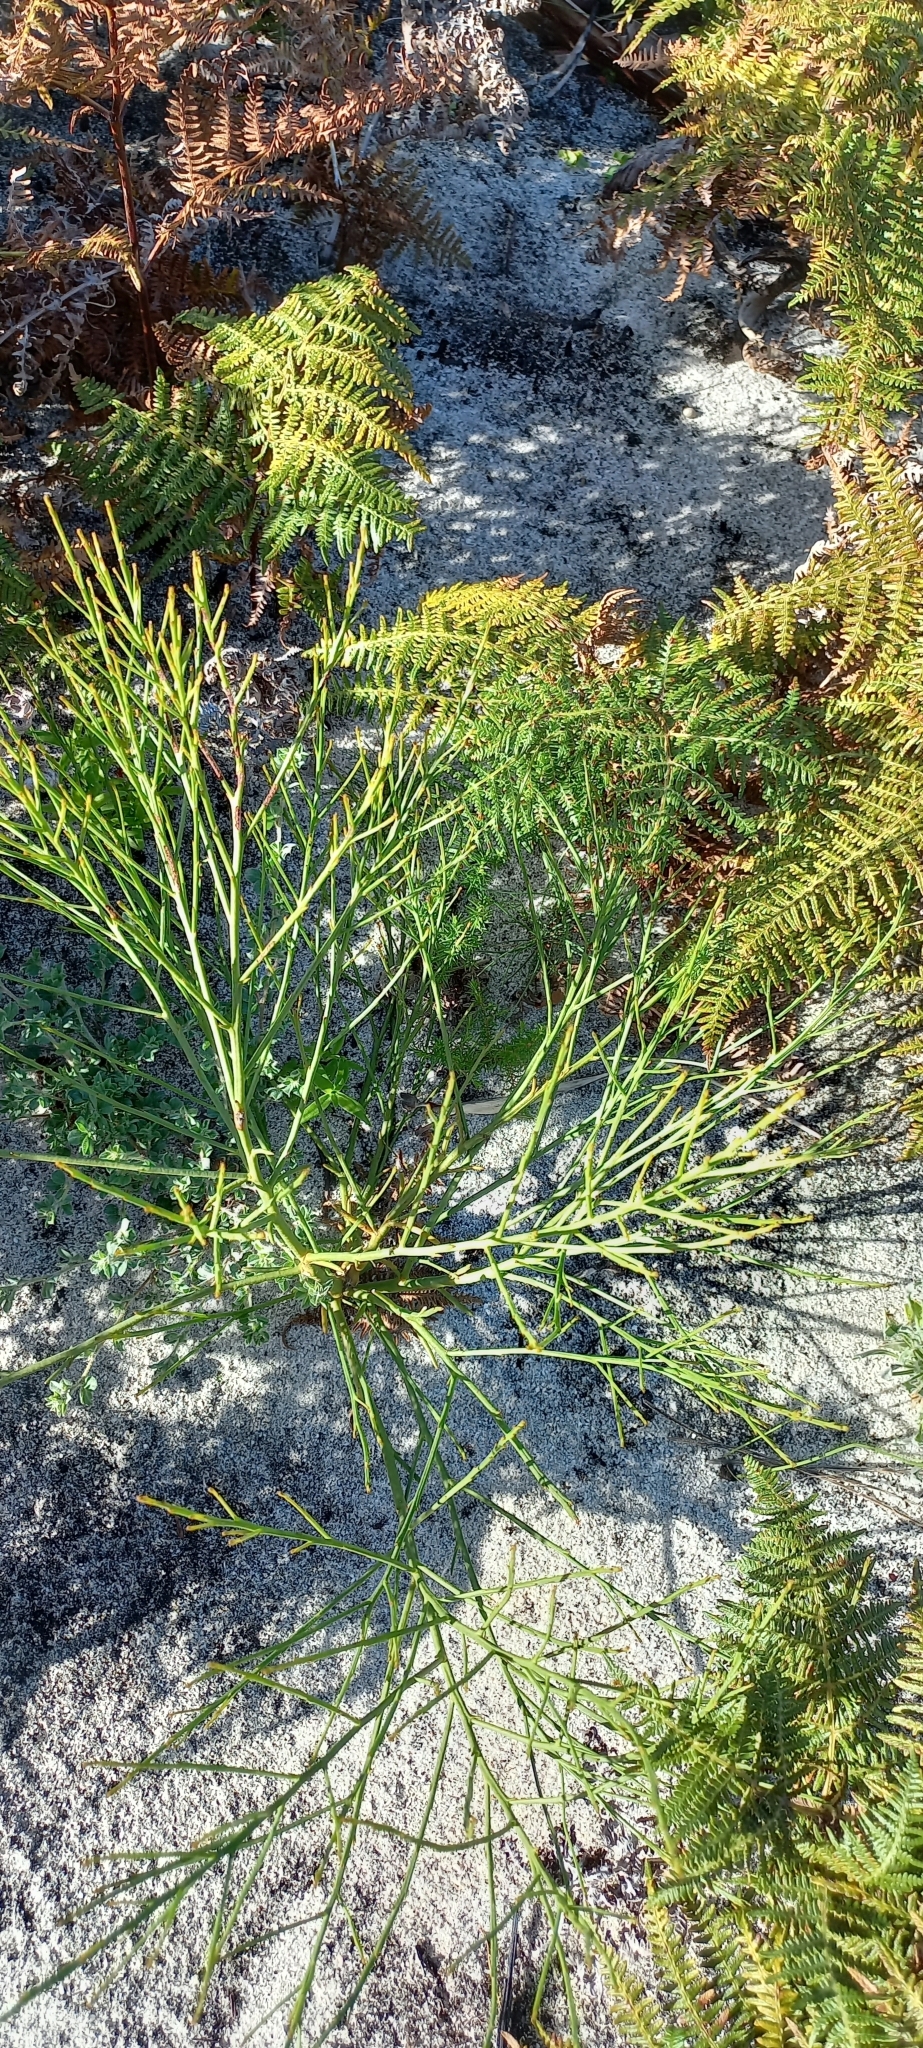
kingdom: Plantae
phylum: Tracheophyta
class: Magnoliopsida
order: Santalales
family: Thesiaceae
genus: Thesium
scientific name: Thesium strictum
